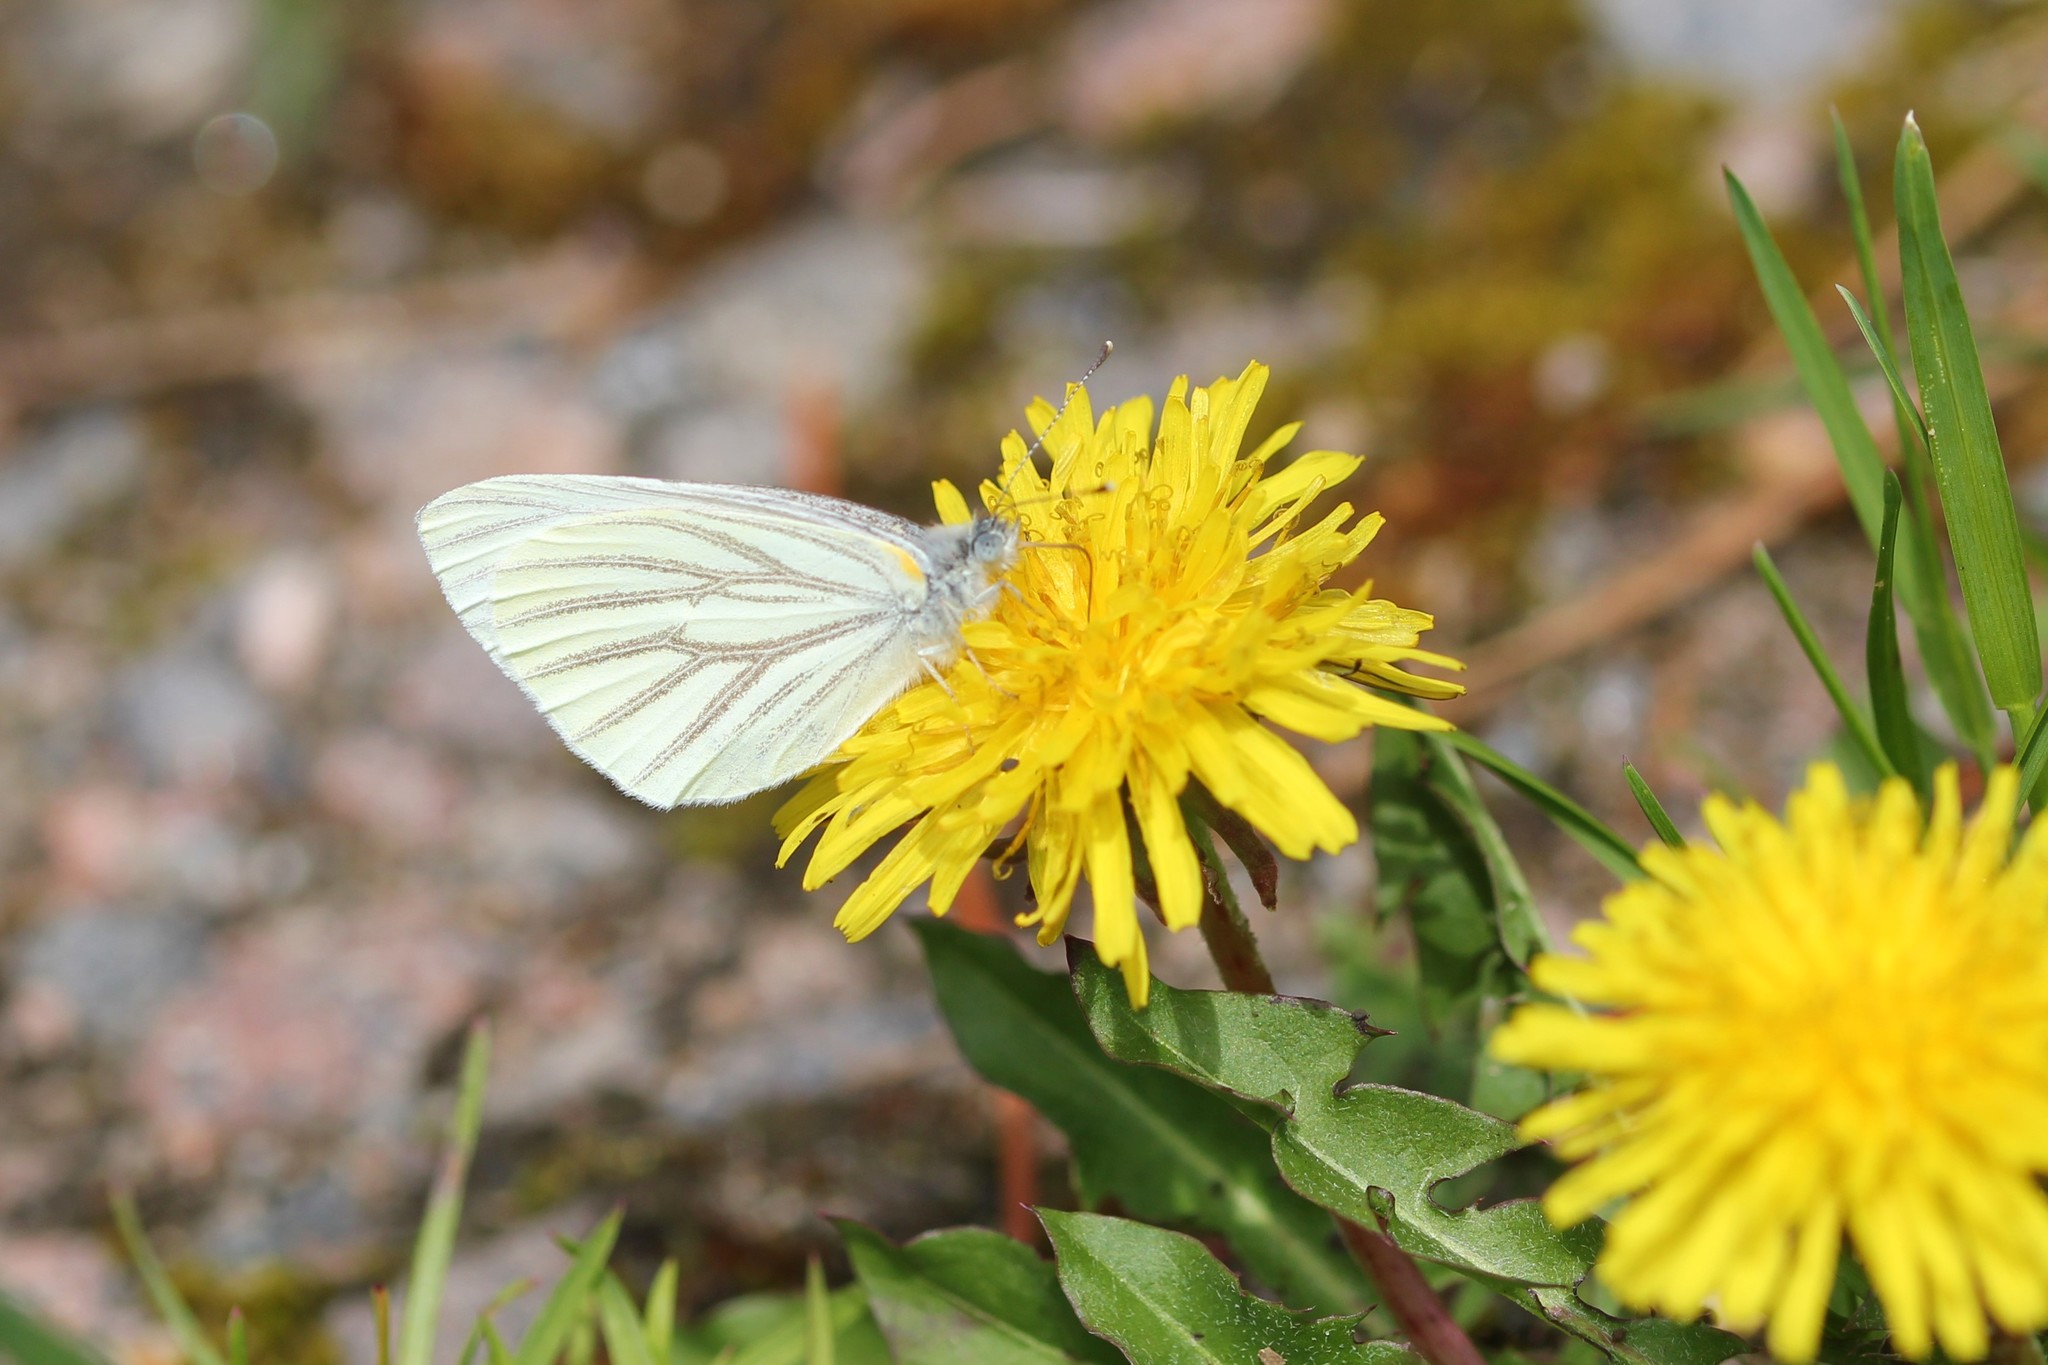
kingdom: Animalia
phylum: Arthropoda
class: Insecta
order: Lepidoptera
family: Pieridae
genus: Pieris
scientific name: Pieris oleracea
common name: Mustard white
